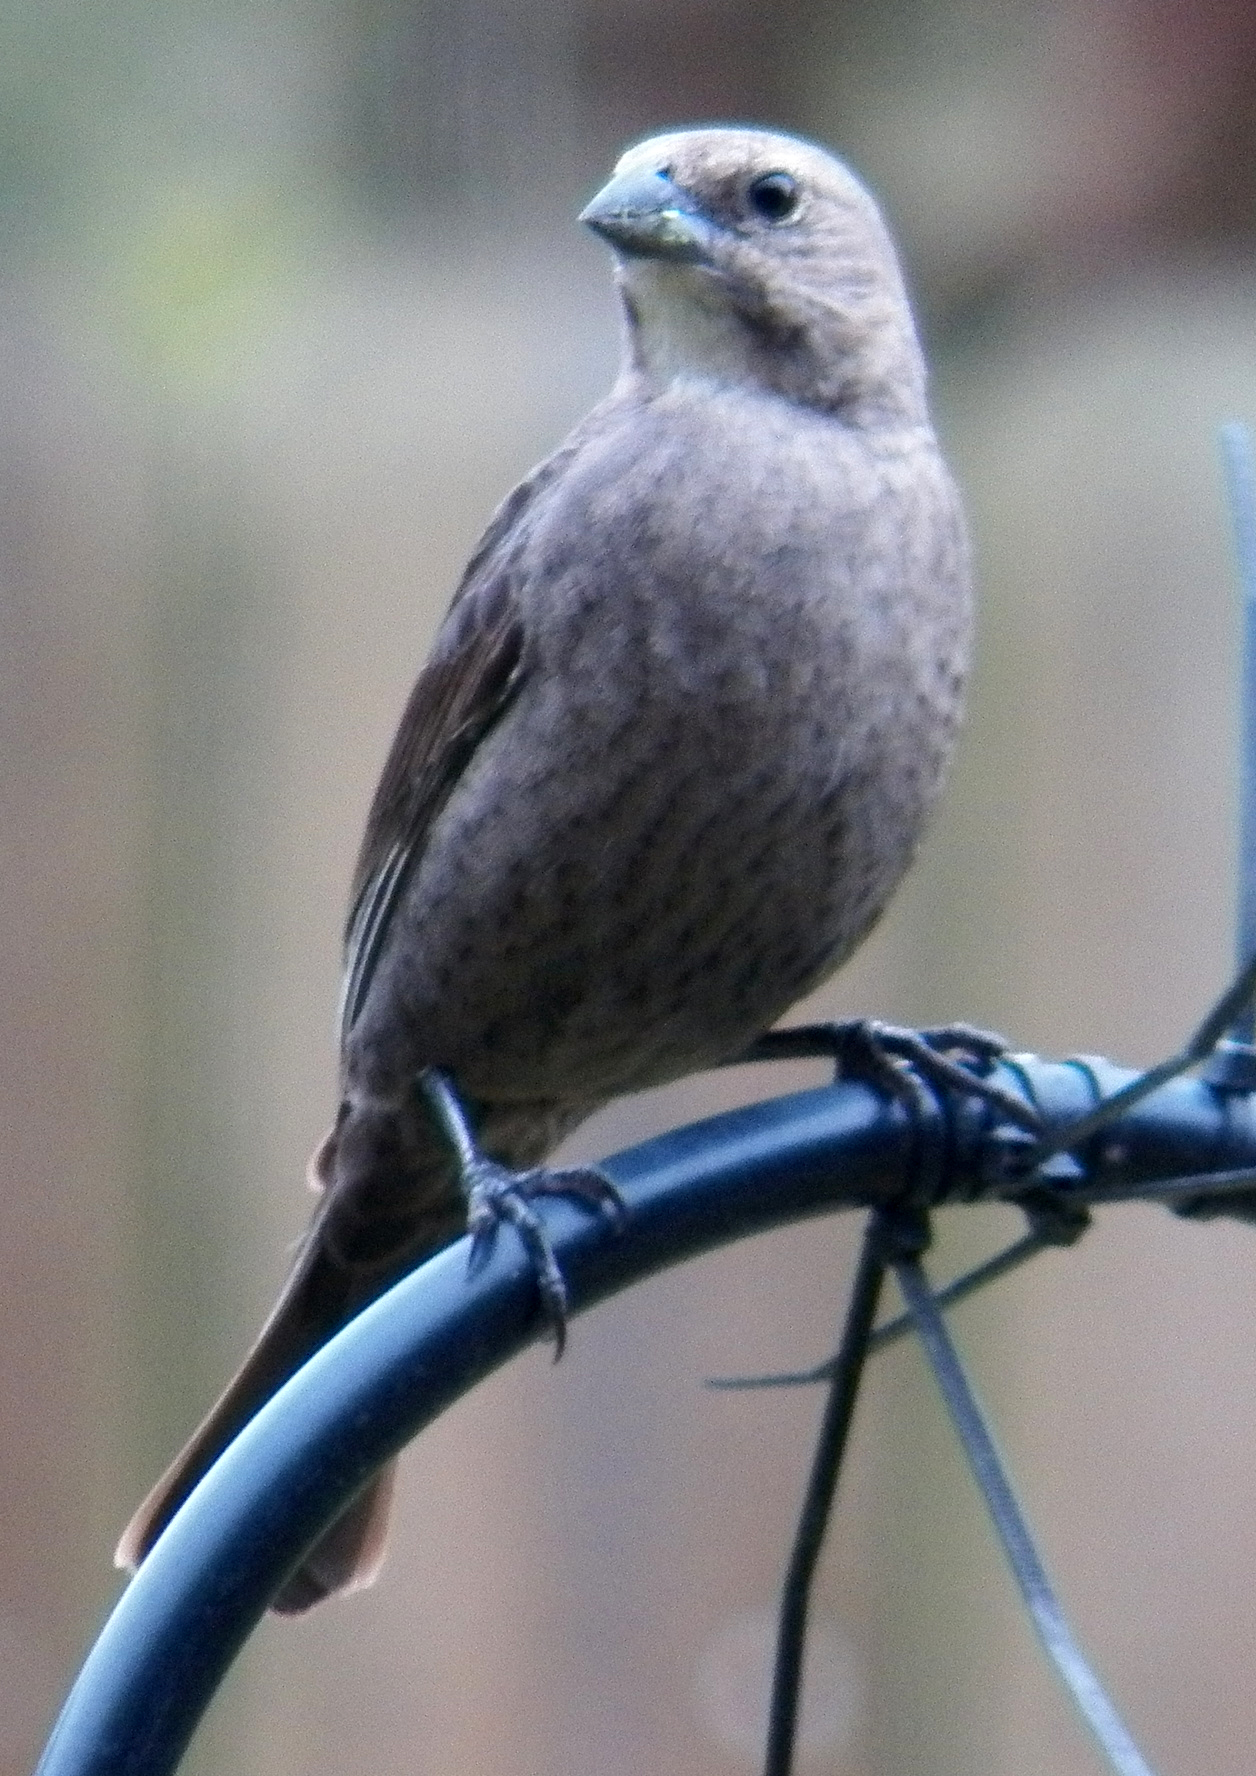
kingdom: Animalia
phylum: Chordata
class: Aves
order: Passeriformes
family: Icteridae
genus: Molothrus
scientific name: Molothrus ater
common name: Brown-headed cowbird
